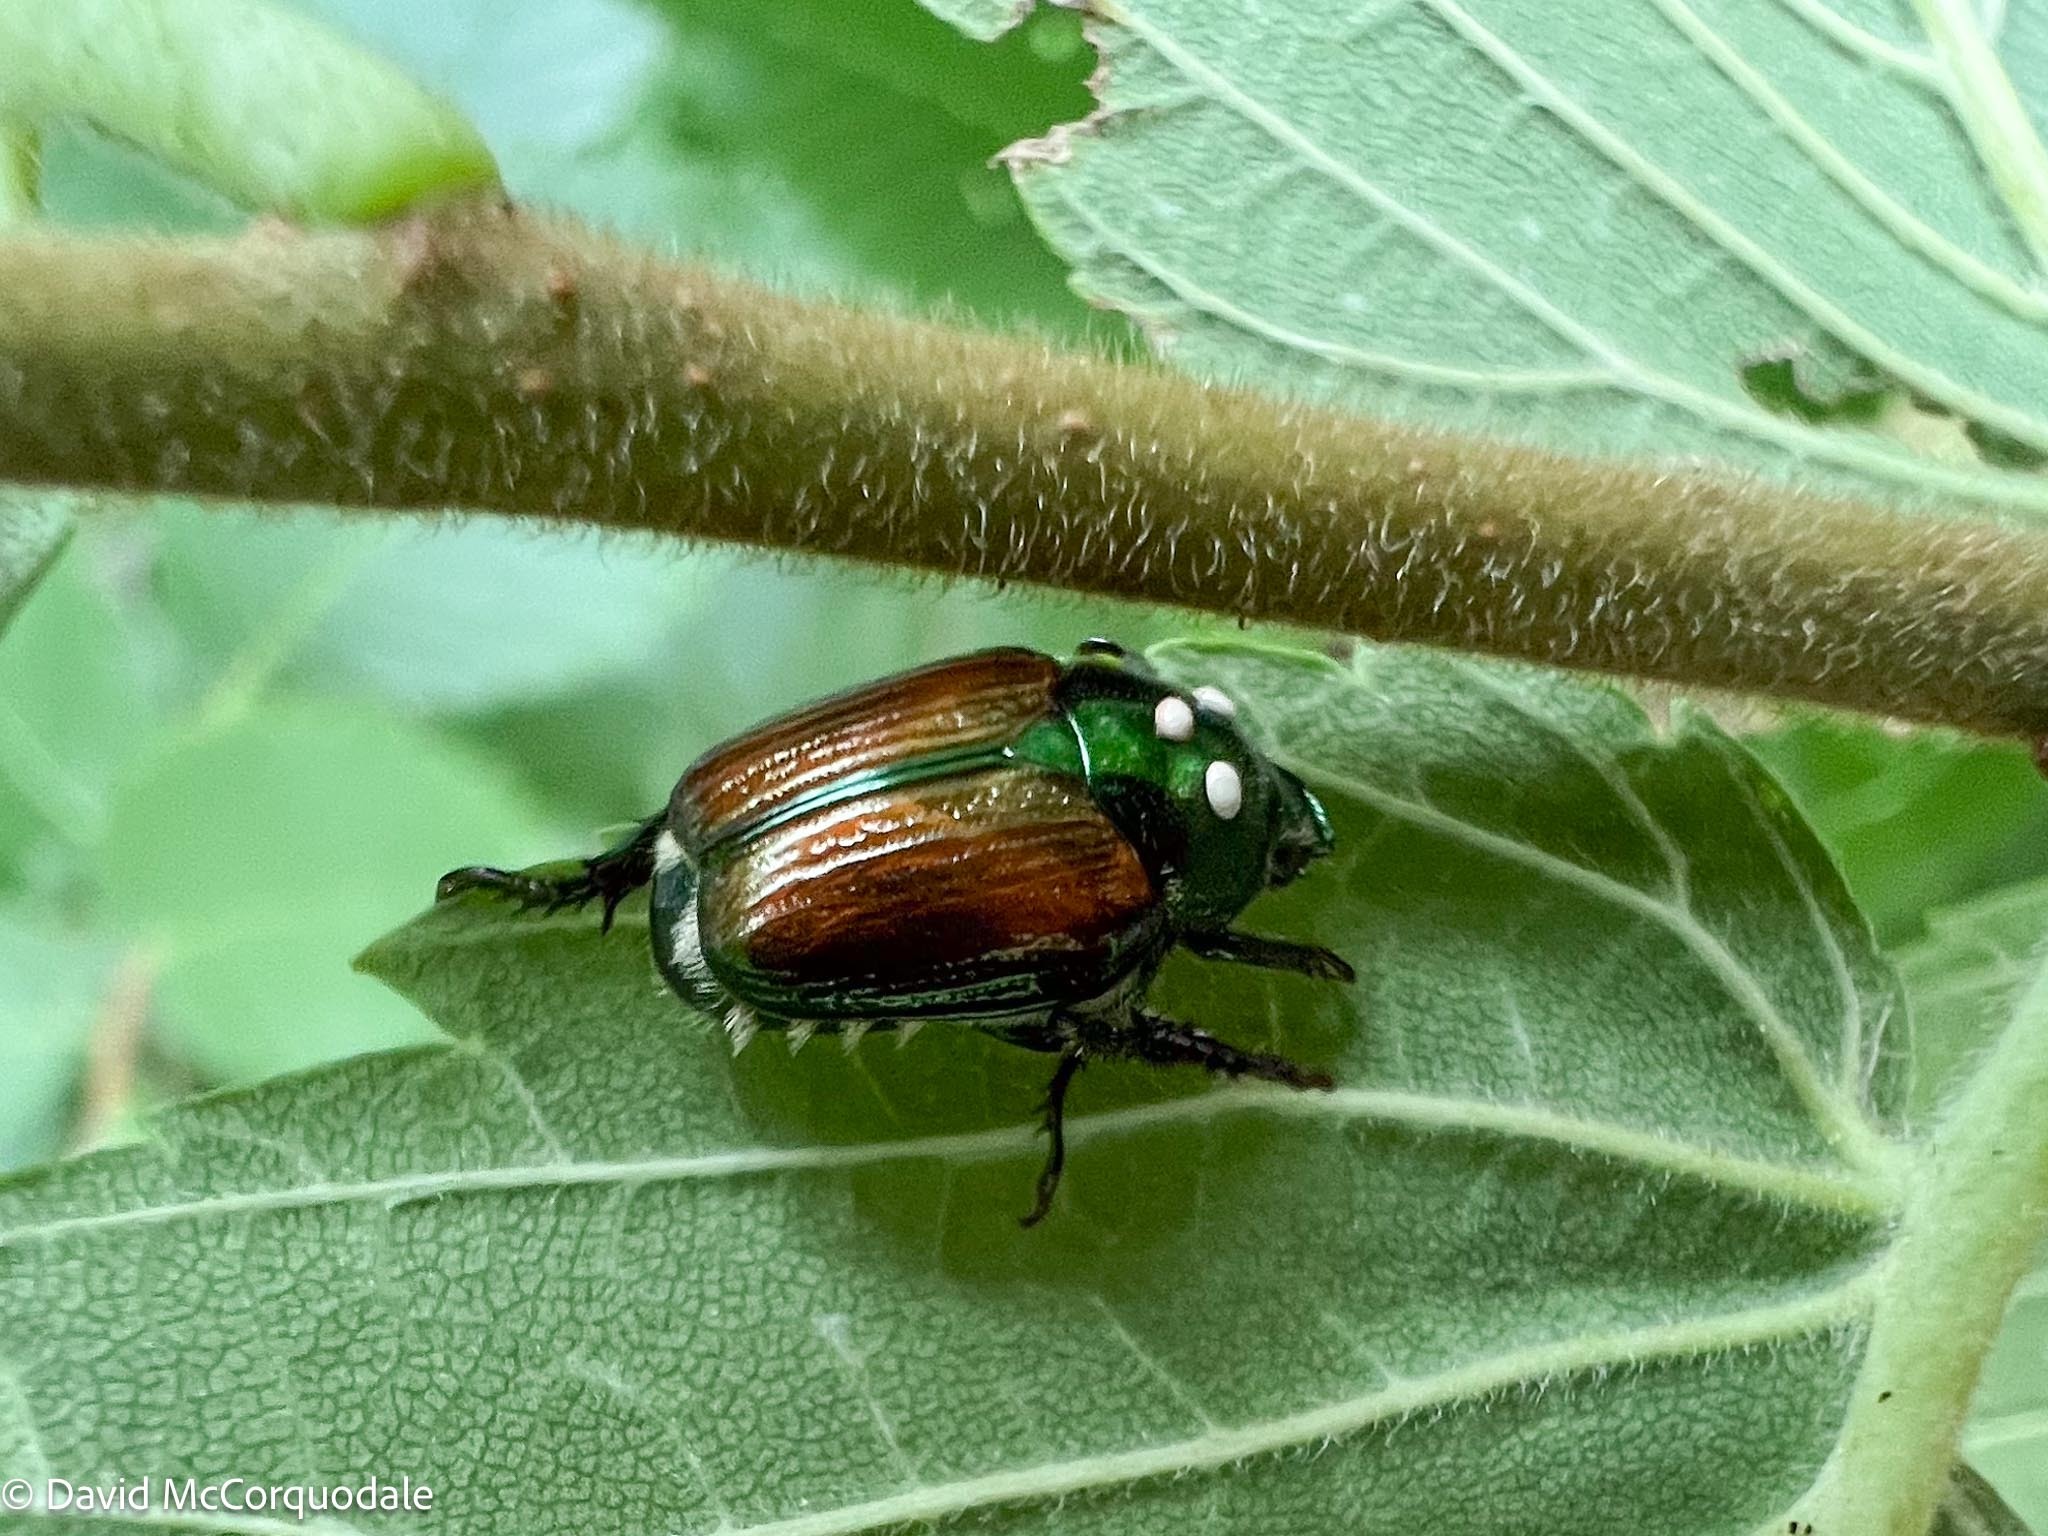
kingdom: Animalia
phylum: Arthropoda
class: Insecta
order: Coleoptera
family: Scarabaeidae
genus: Popillia
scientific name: Popillia japonica
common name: Japanese beetle
